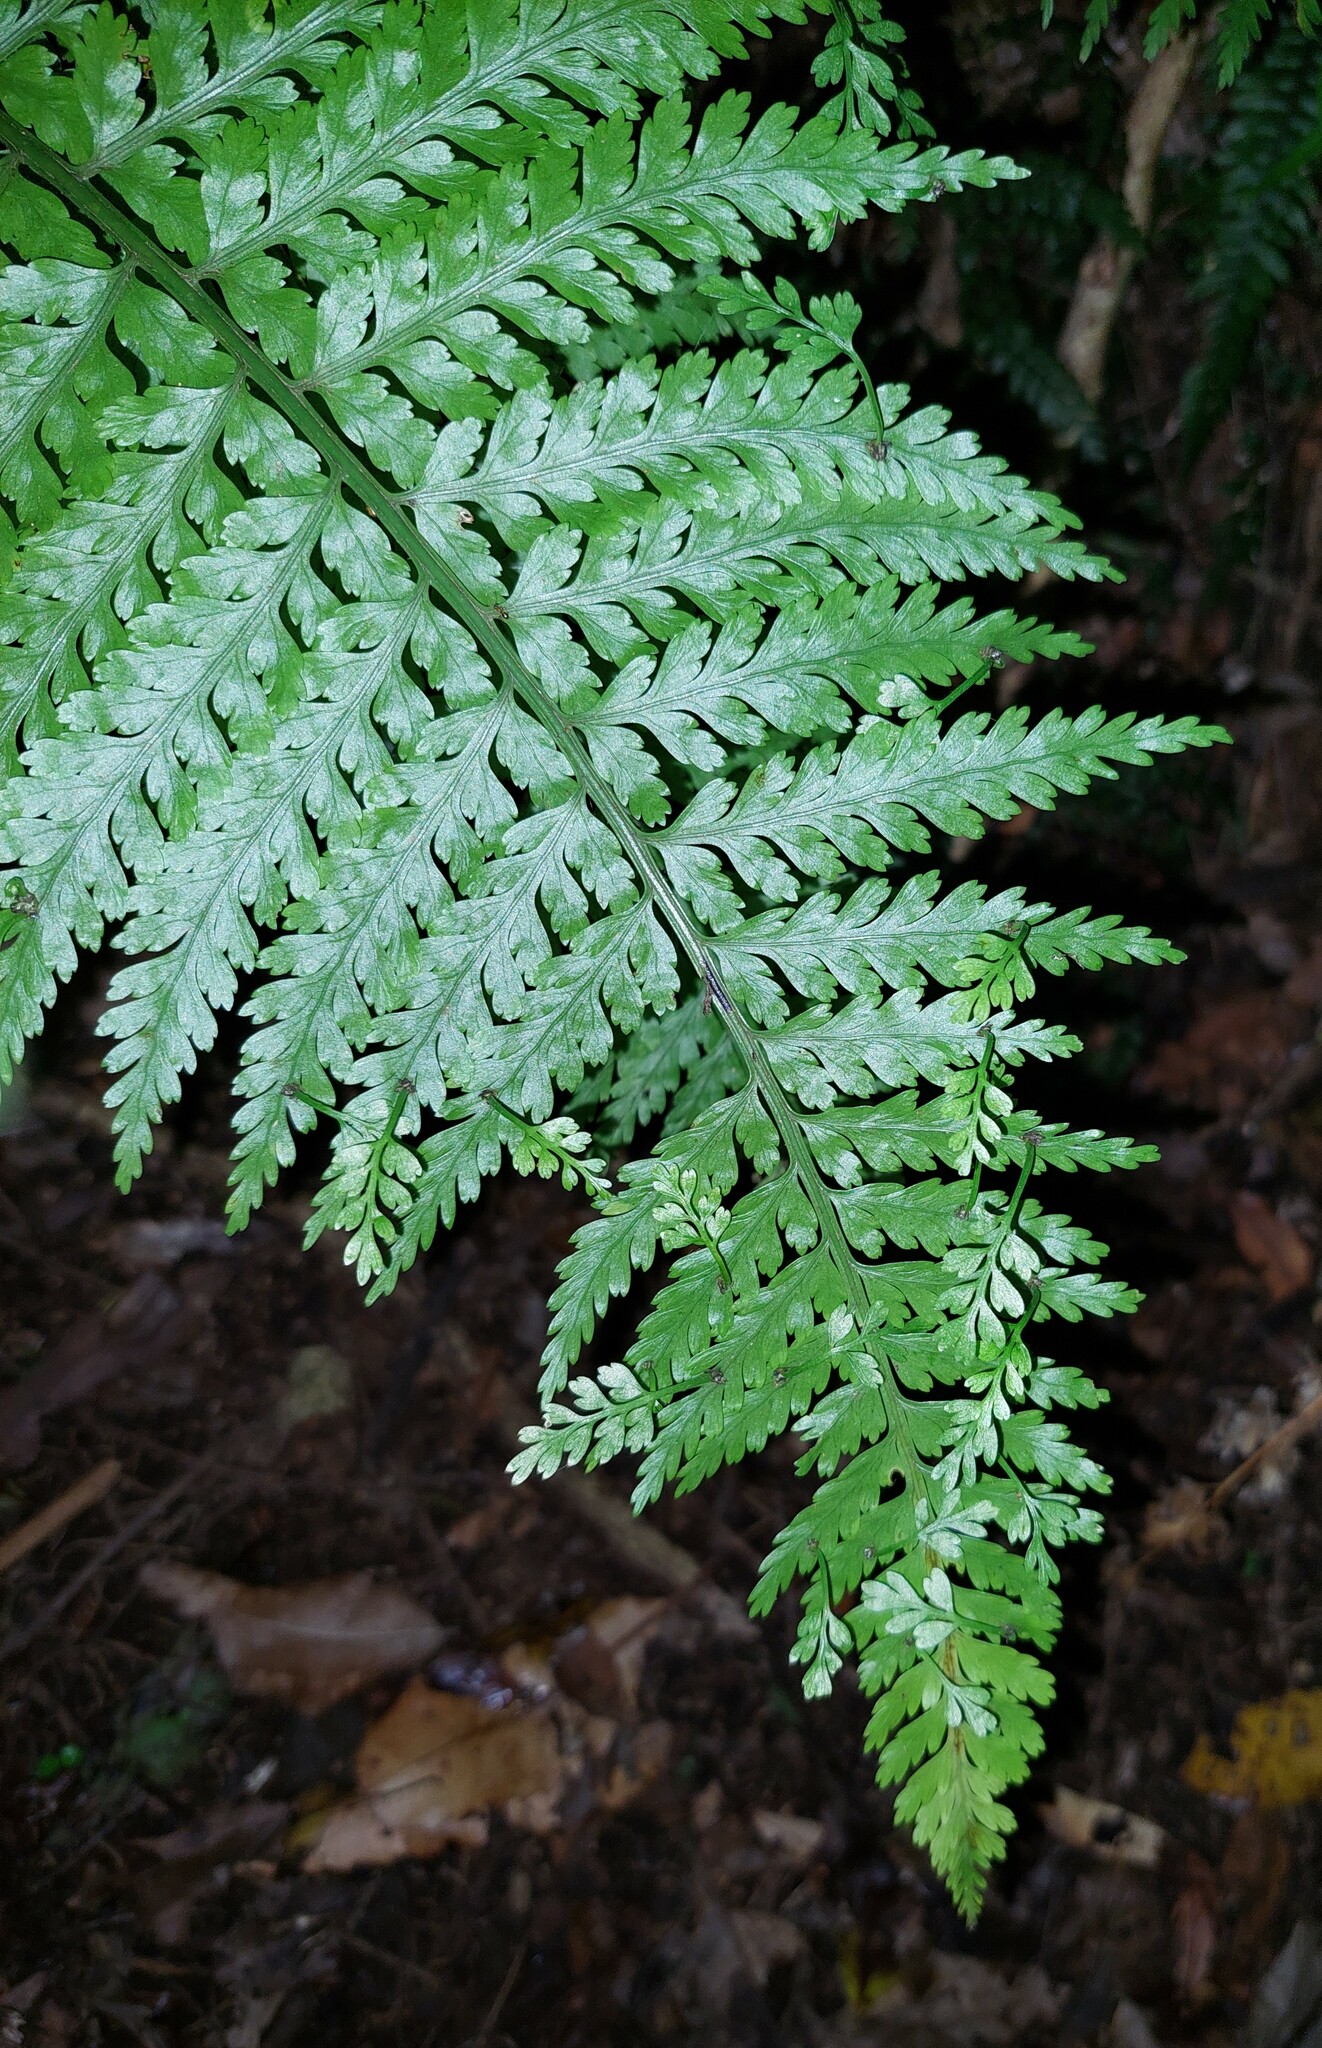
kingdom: Plantae
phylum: Tracheophyta
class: Polypodiopsida
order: Polypodiales
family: Aspleniaceae
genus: Asplenium
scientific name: Asplenium bulbiferum
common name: Mother fern
